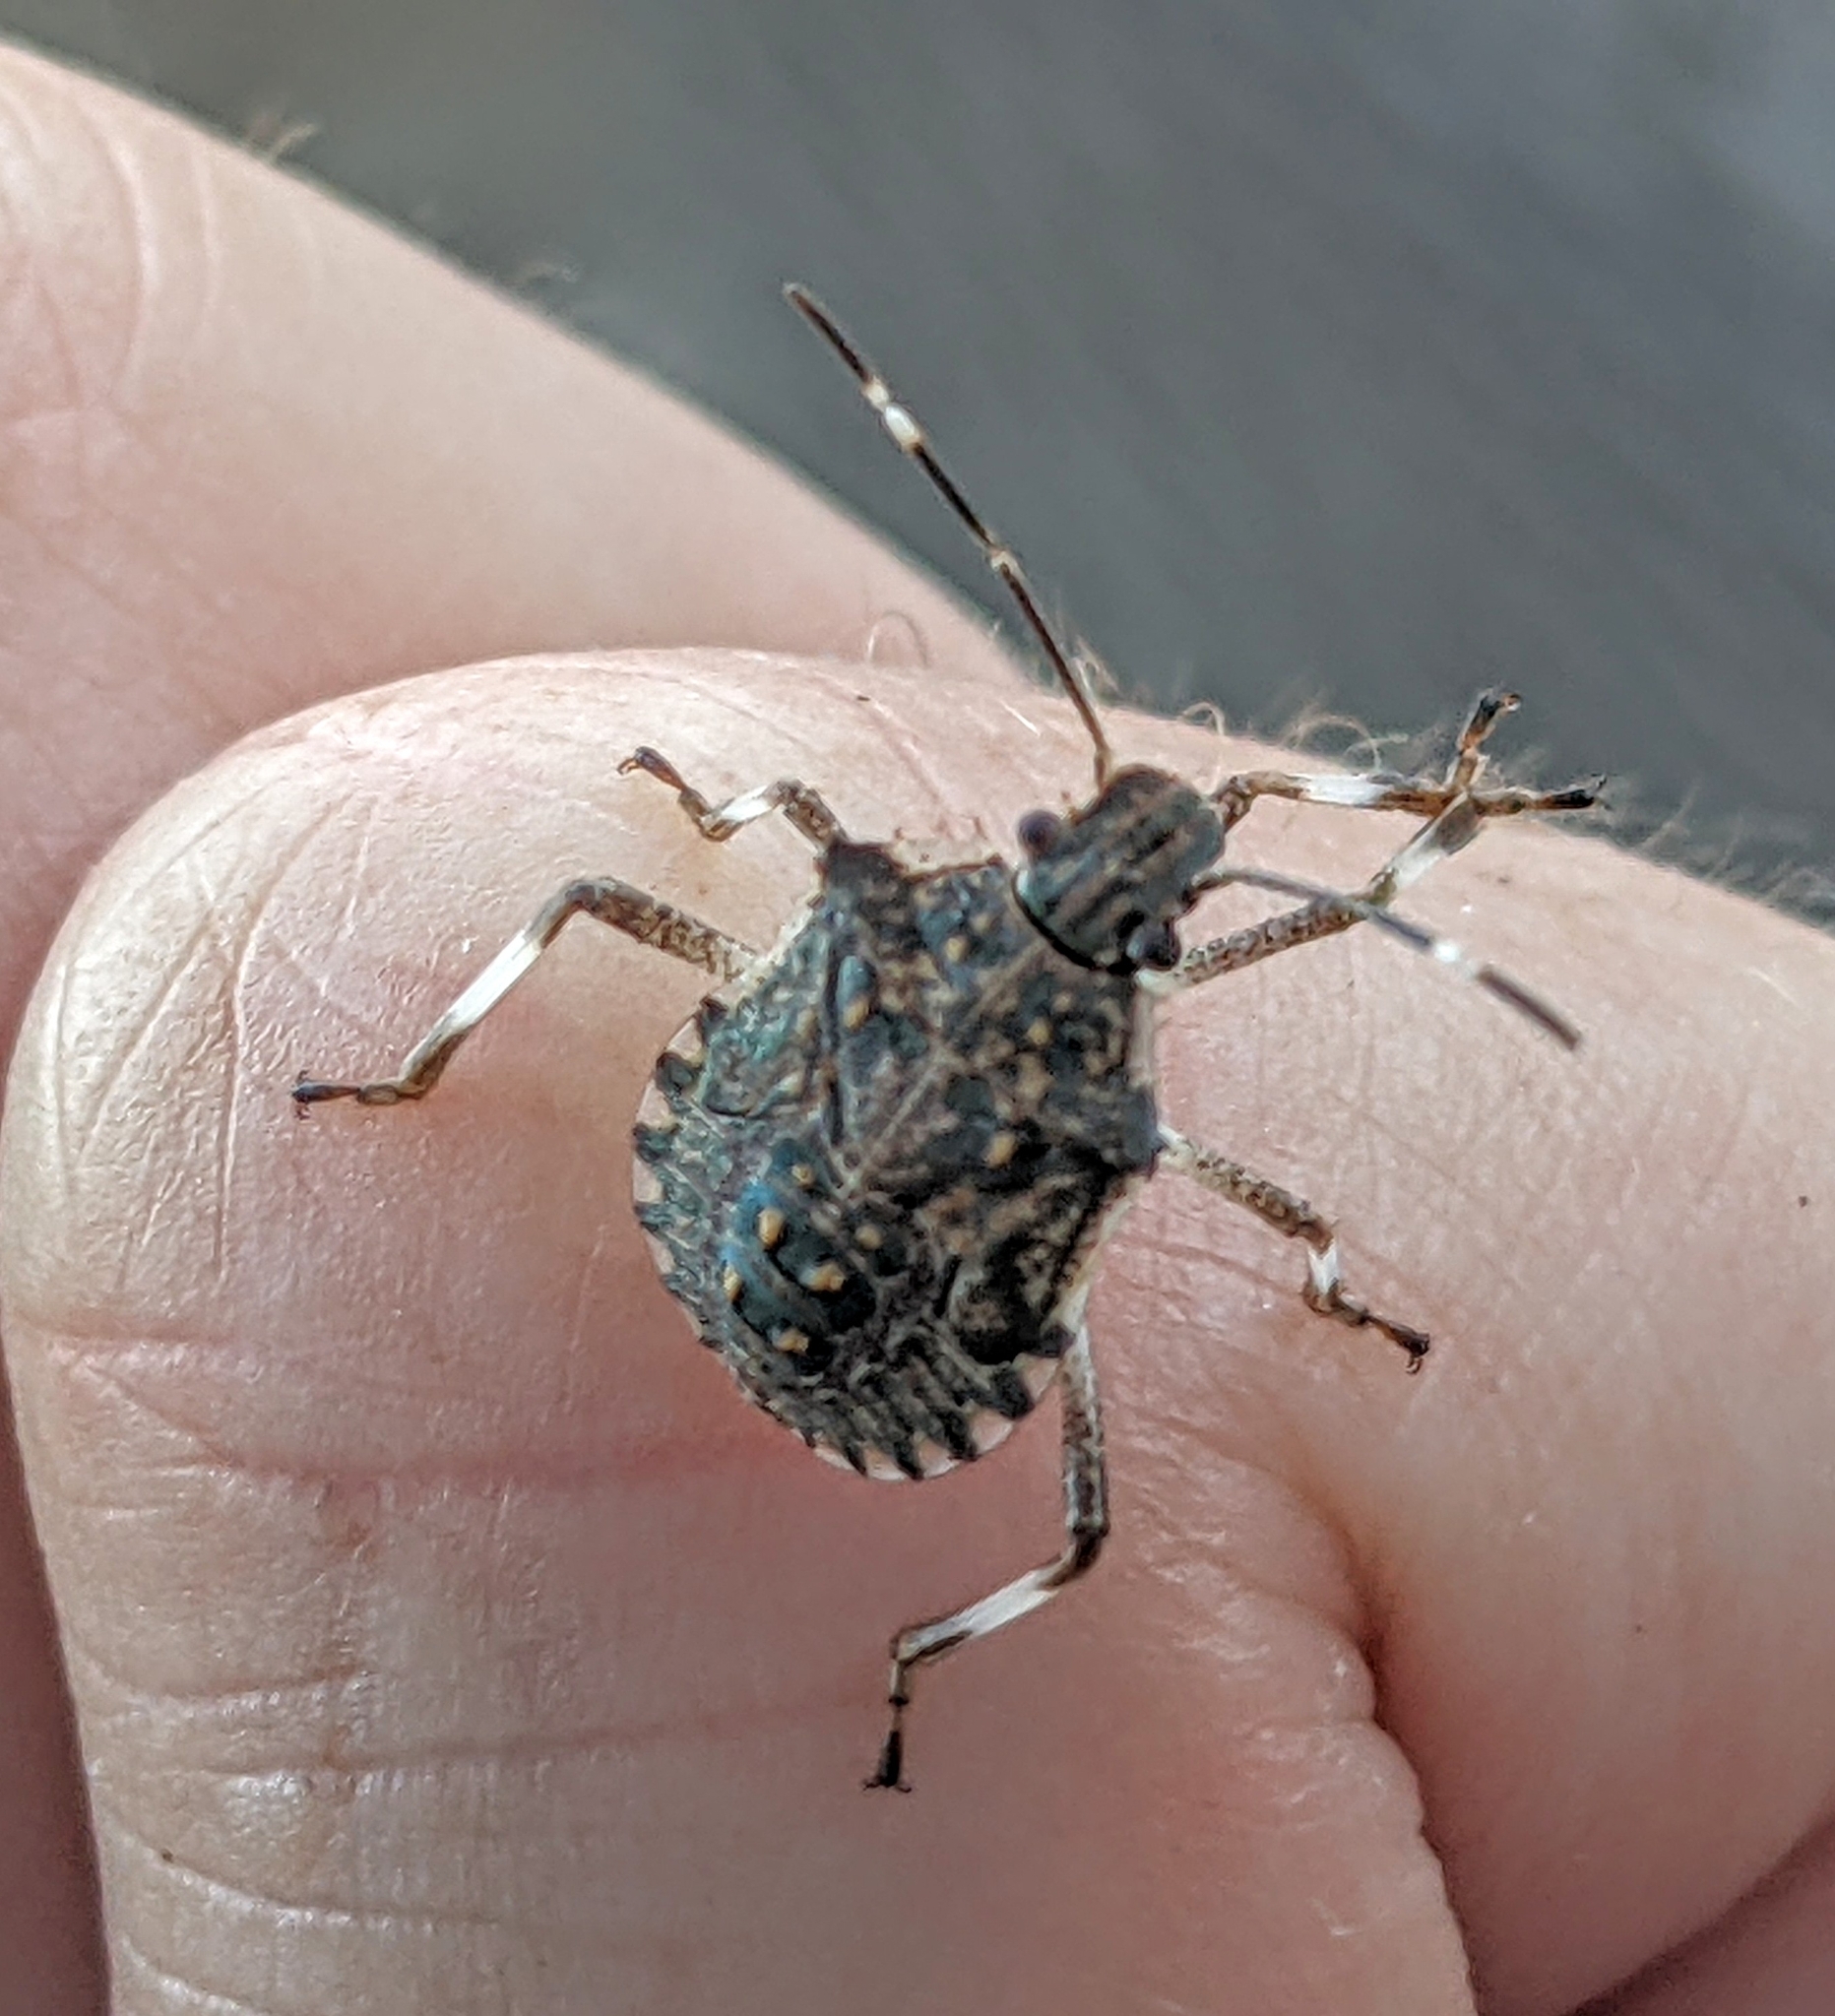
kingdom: Animalia
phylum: Arthropoda
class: Insecta
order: Hemiptera
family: Pentatomidae
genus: Halyomorpha
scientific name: Halyomorpha halys
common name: Brown marmorated stink bug
